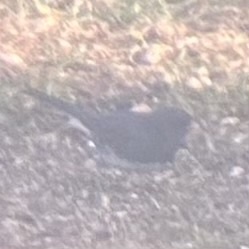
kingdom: Animalia
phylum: Chordata
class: Aves
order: Passeriformes
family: Passerellidae
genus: Junco
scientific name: Junco hyemalis
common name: Dark-eyed junco
